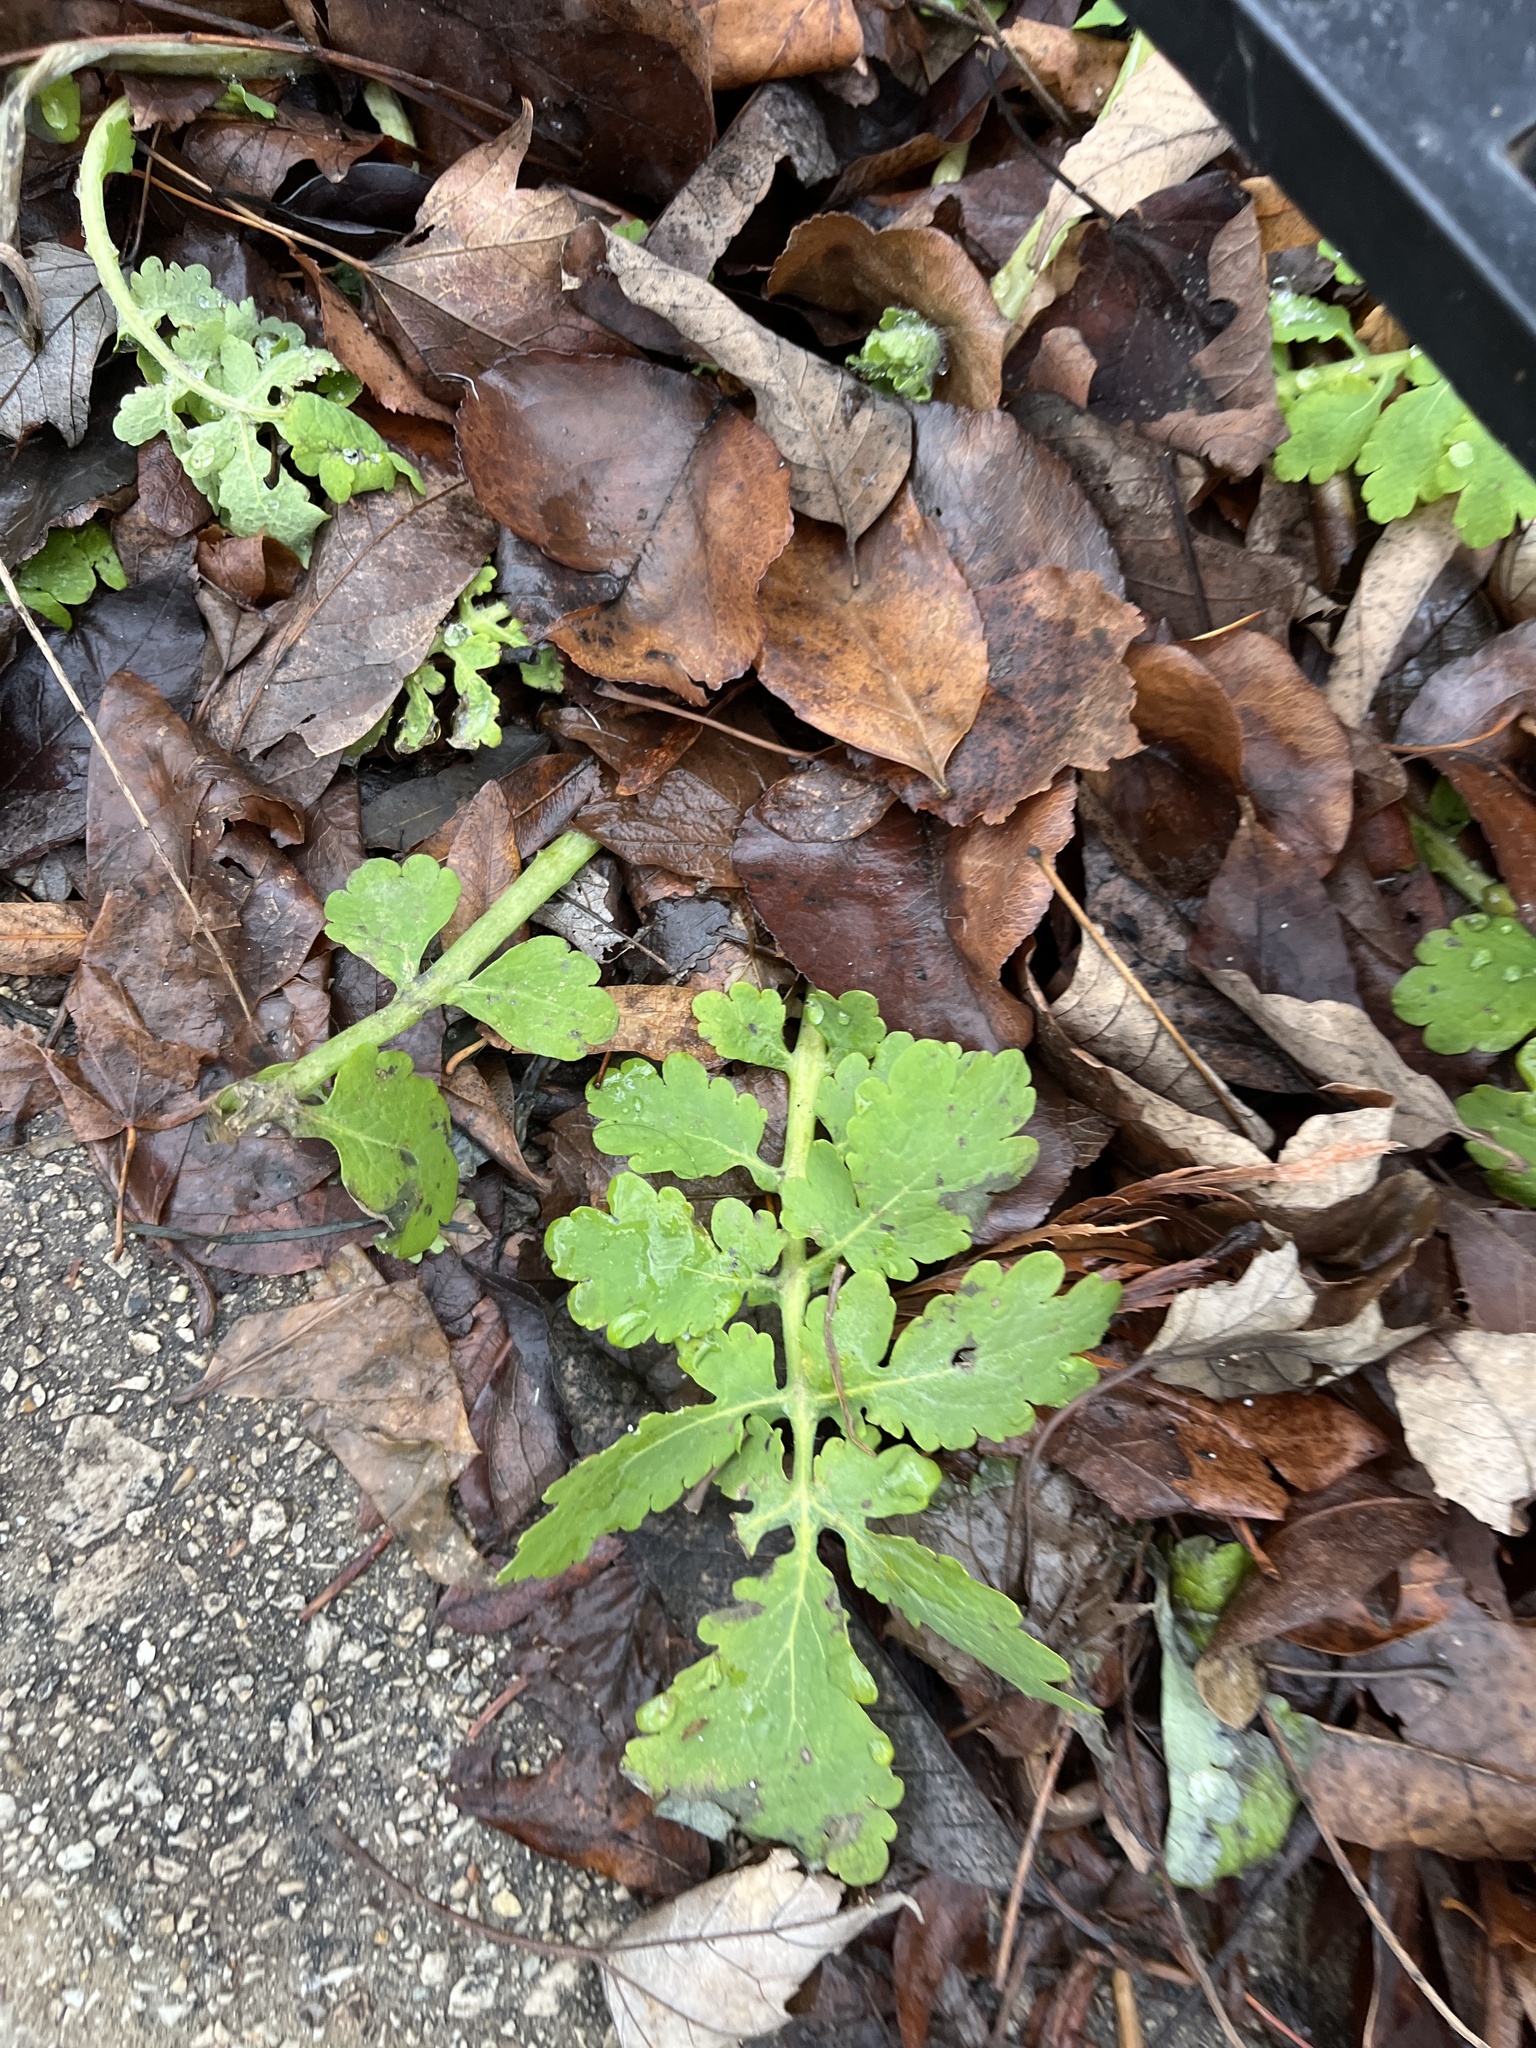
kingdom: Plantae
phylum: Tracheophyta
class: Magnoliopsida
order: Ranunculales
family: Papaveraceae
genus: Chelidonium
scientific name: Chelidonium majus
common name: Greater celandine
